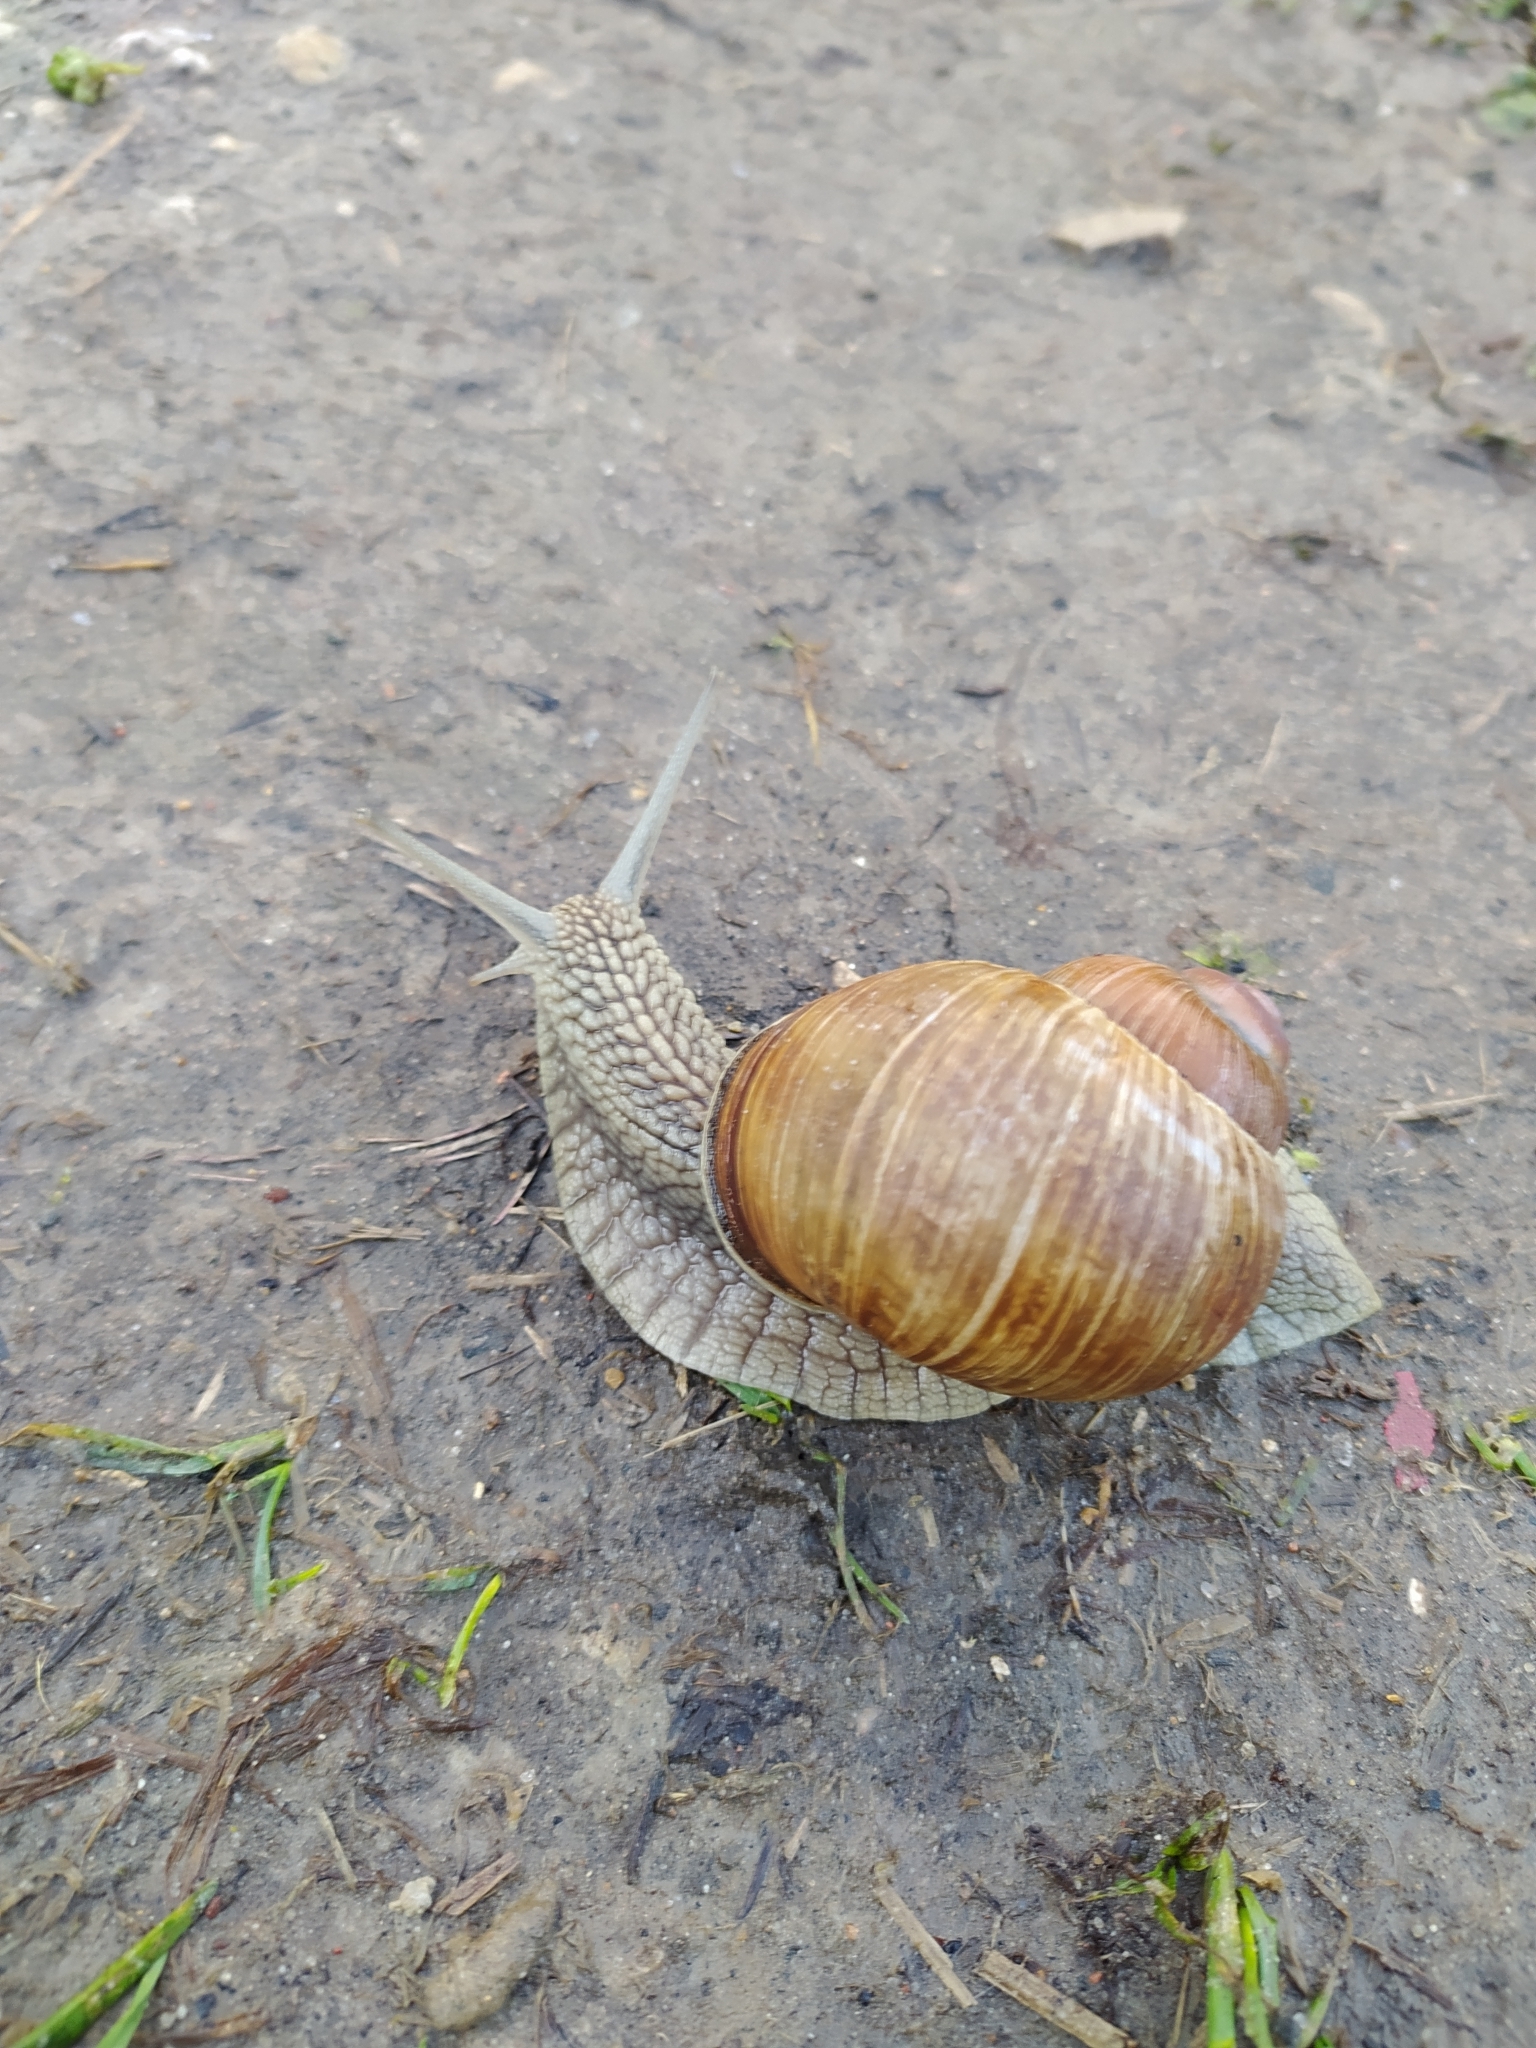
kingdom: Animalia
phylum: Mollusca
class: Gastropoda
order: Stylommatophora
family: Helicidae
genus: Helix
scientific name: Helix pomatia
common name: Roman snail
